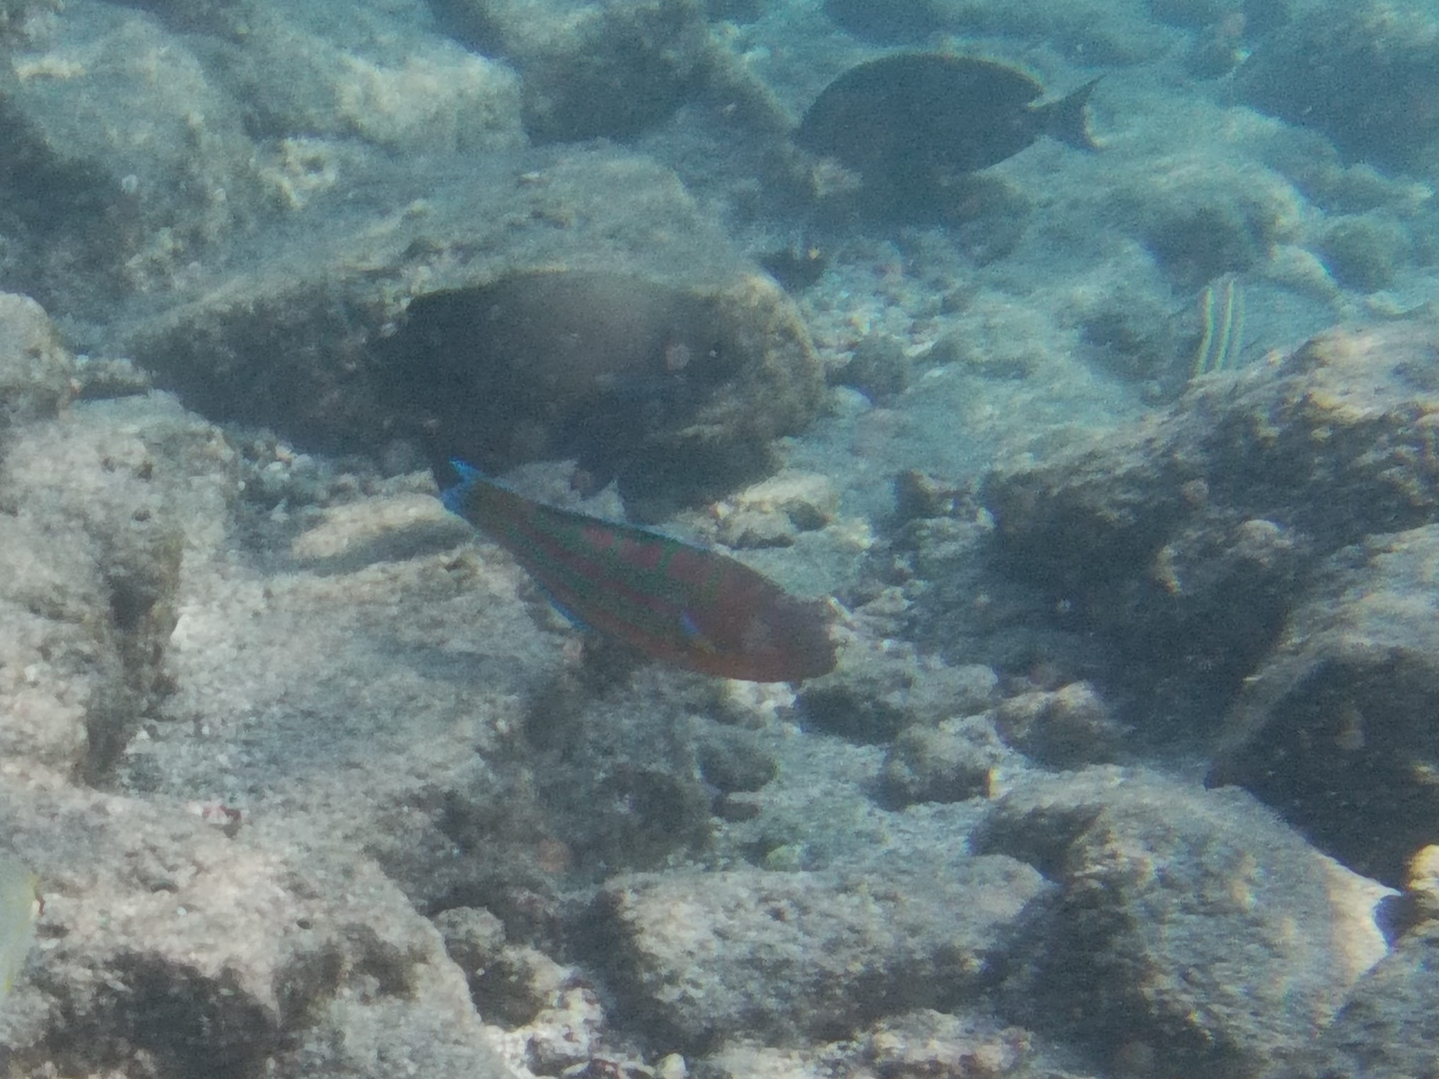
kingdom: Animalia
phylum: Chordata
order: Perciformes
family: Labridae
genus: Thalassoma
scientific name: Thalassoma trilobatum
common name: Christmas wrasse
